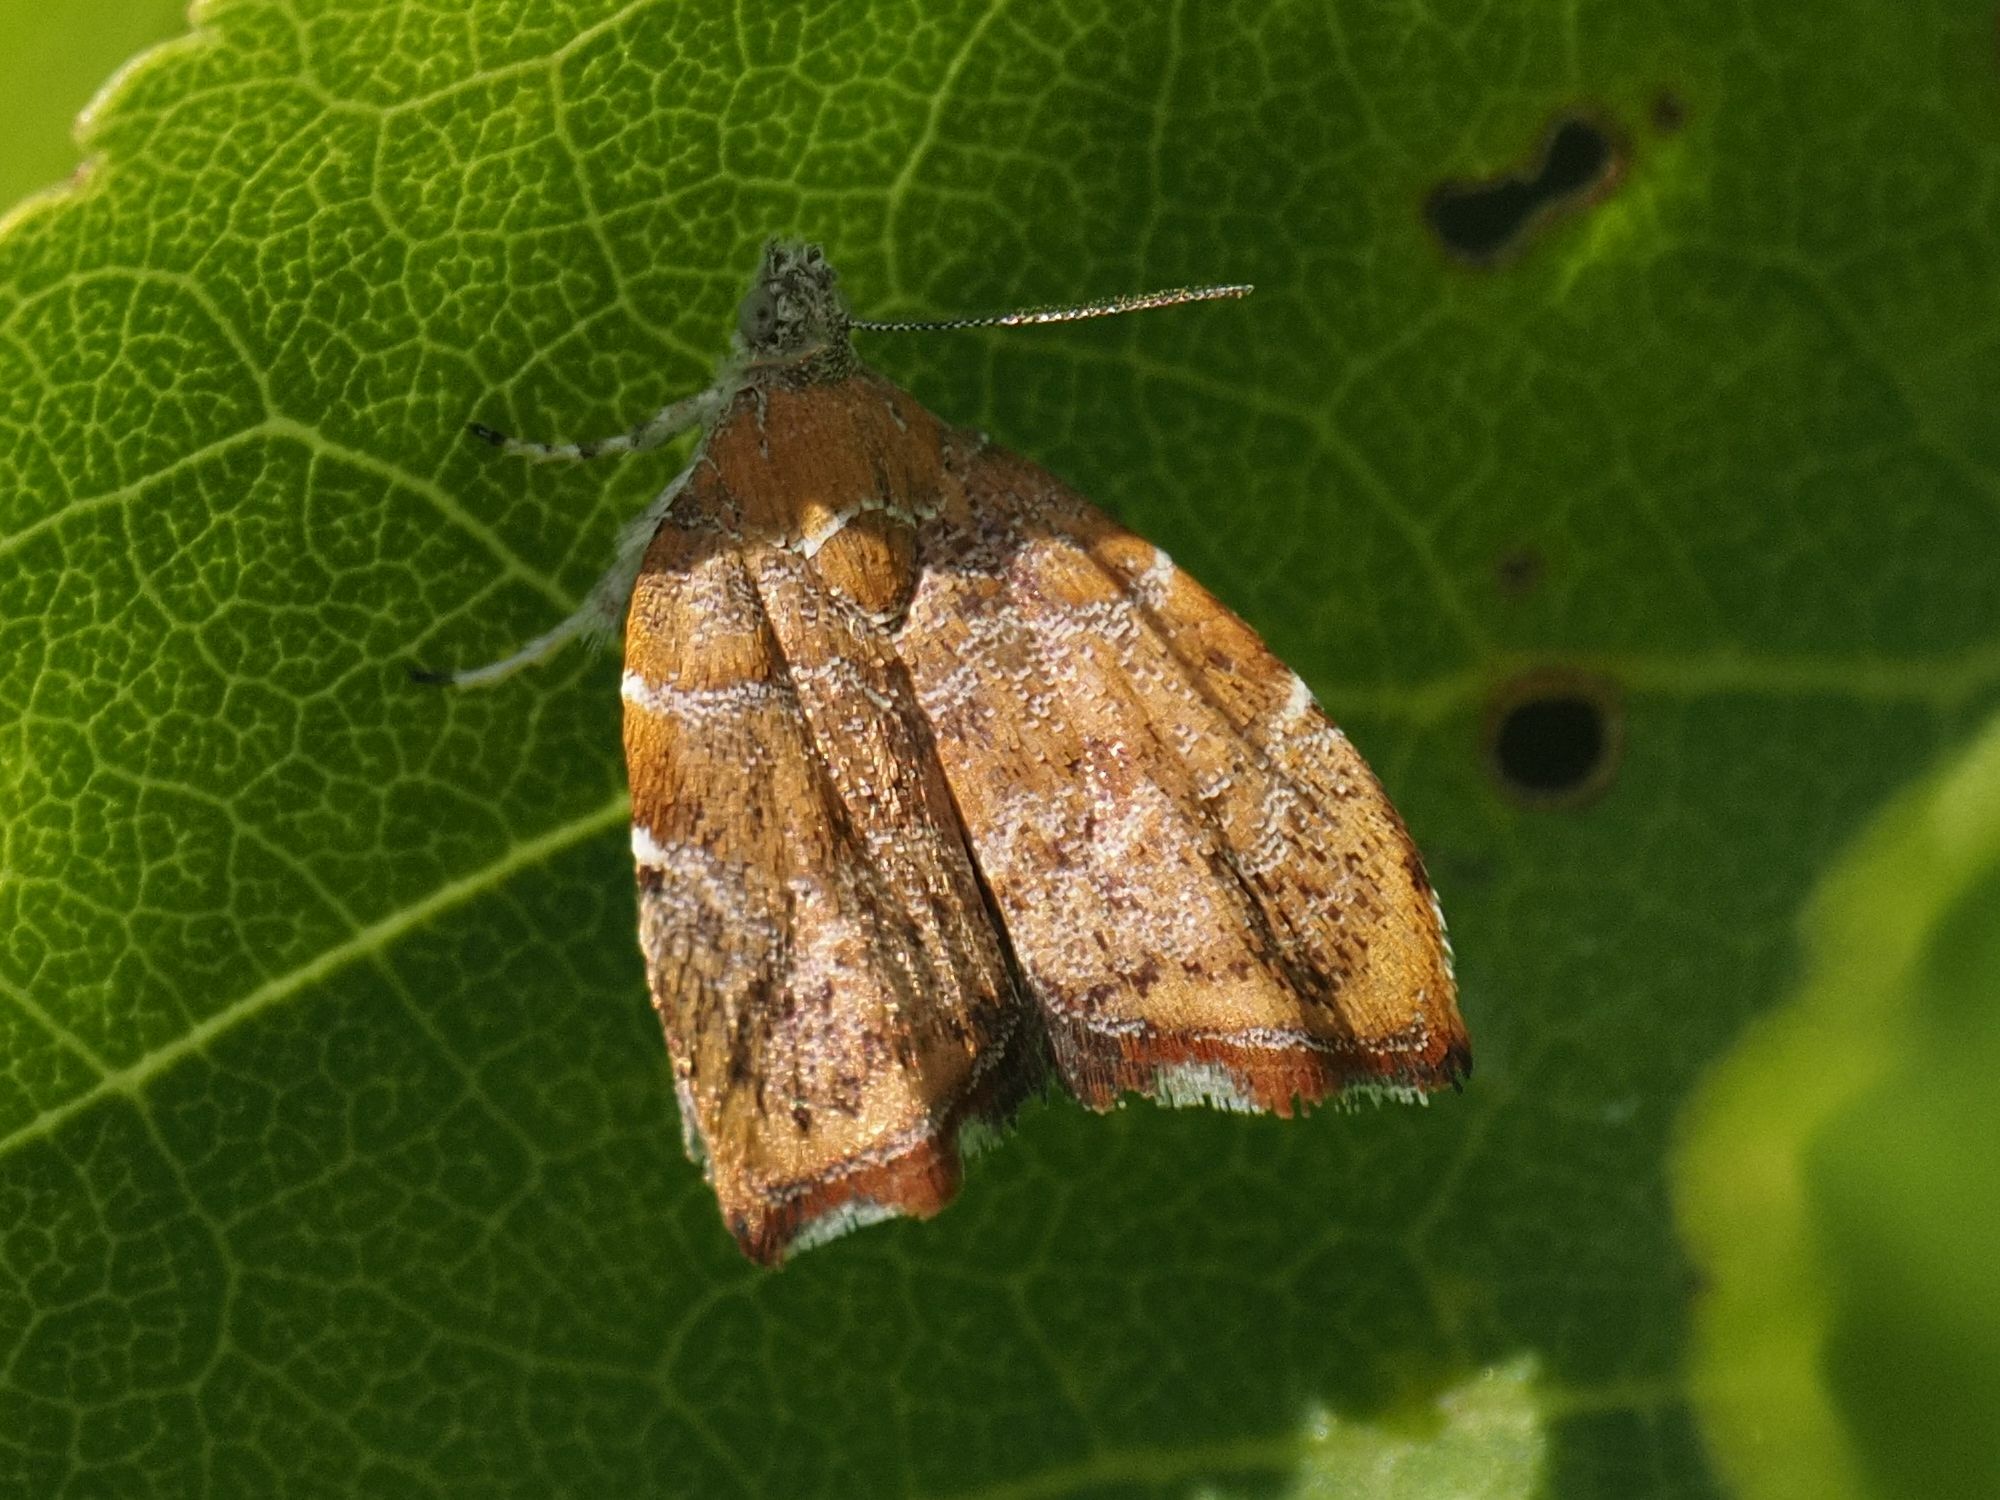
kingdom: Animalia
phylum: Arthropoda
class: Insecta
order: Lepidoptera
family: Choreutidae
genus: Anthophila
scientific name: Anthophila nemorana
